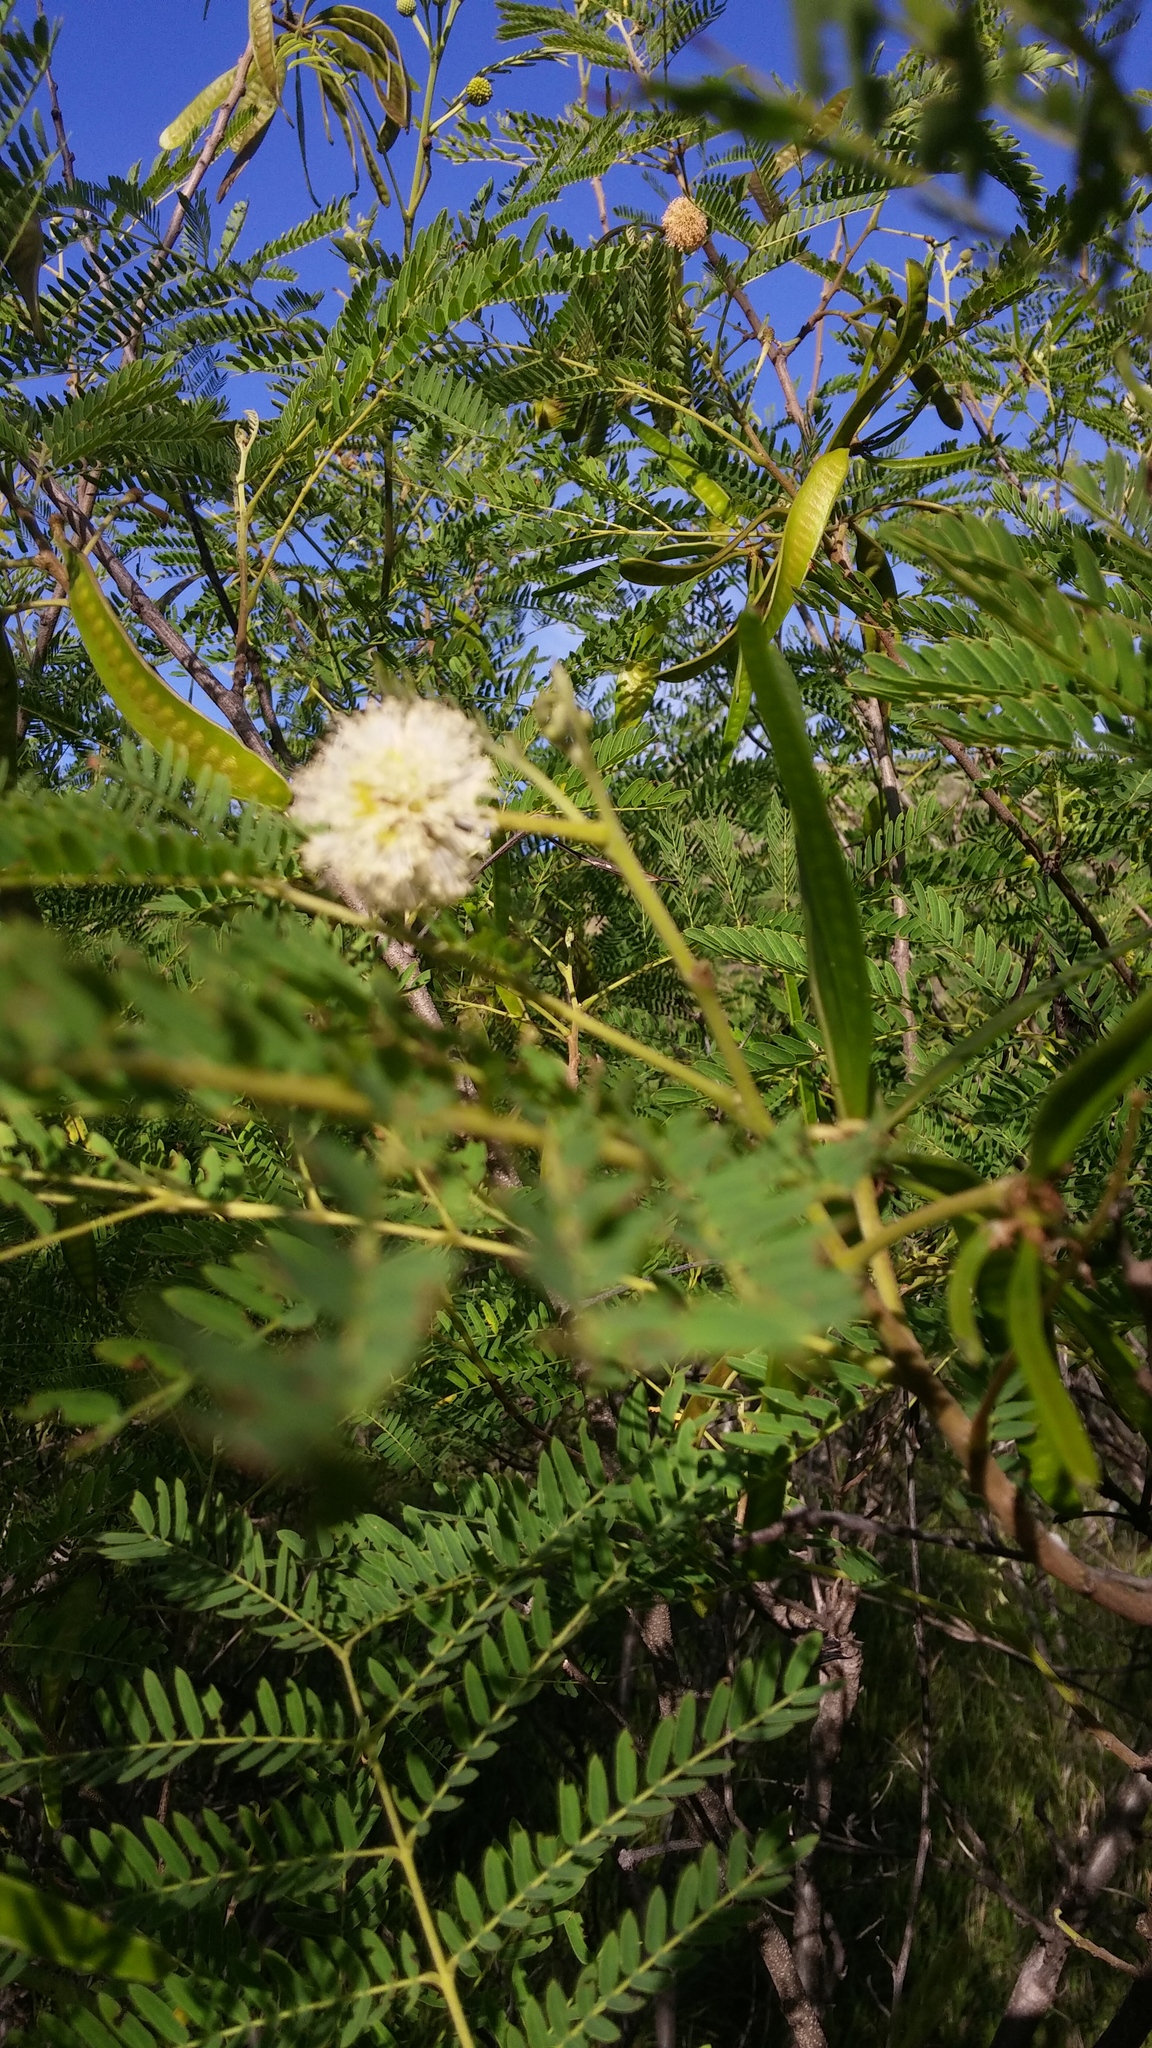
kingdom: Plantae
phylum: Tracheophyta
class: Magnoliopsida
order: Fabales
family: Fabaceae
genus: Leucaena
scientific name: Leucaena leucocephala
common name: White leadtree
